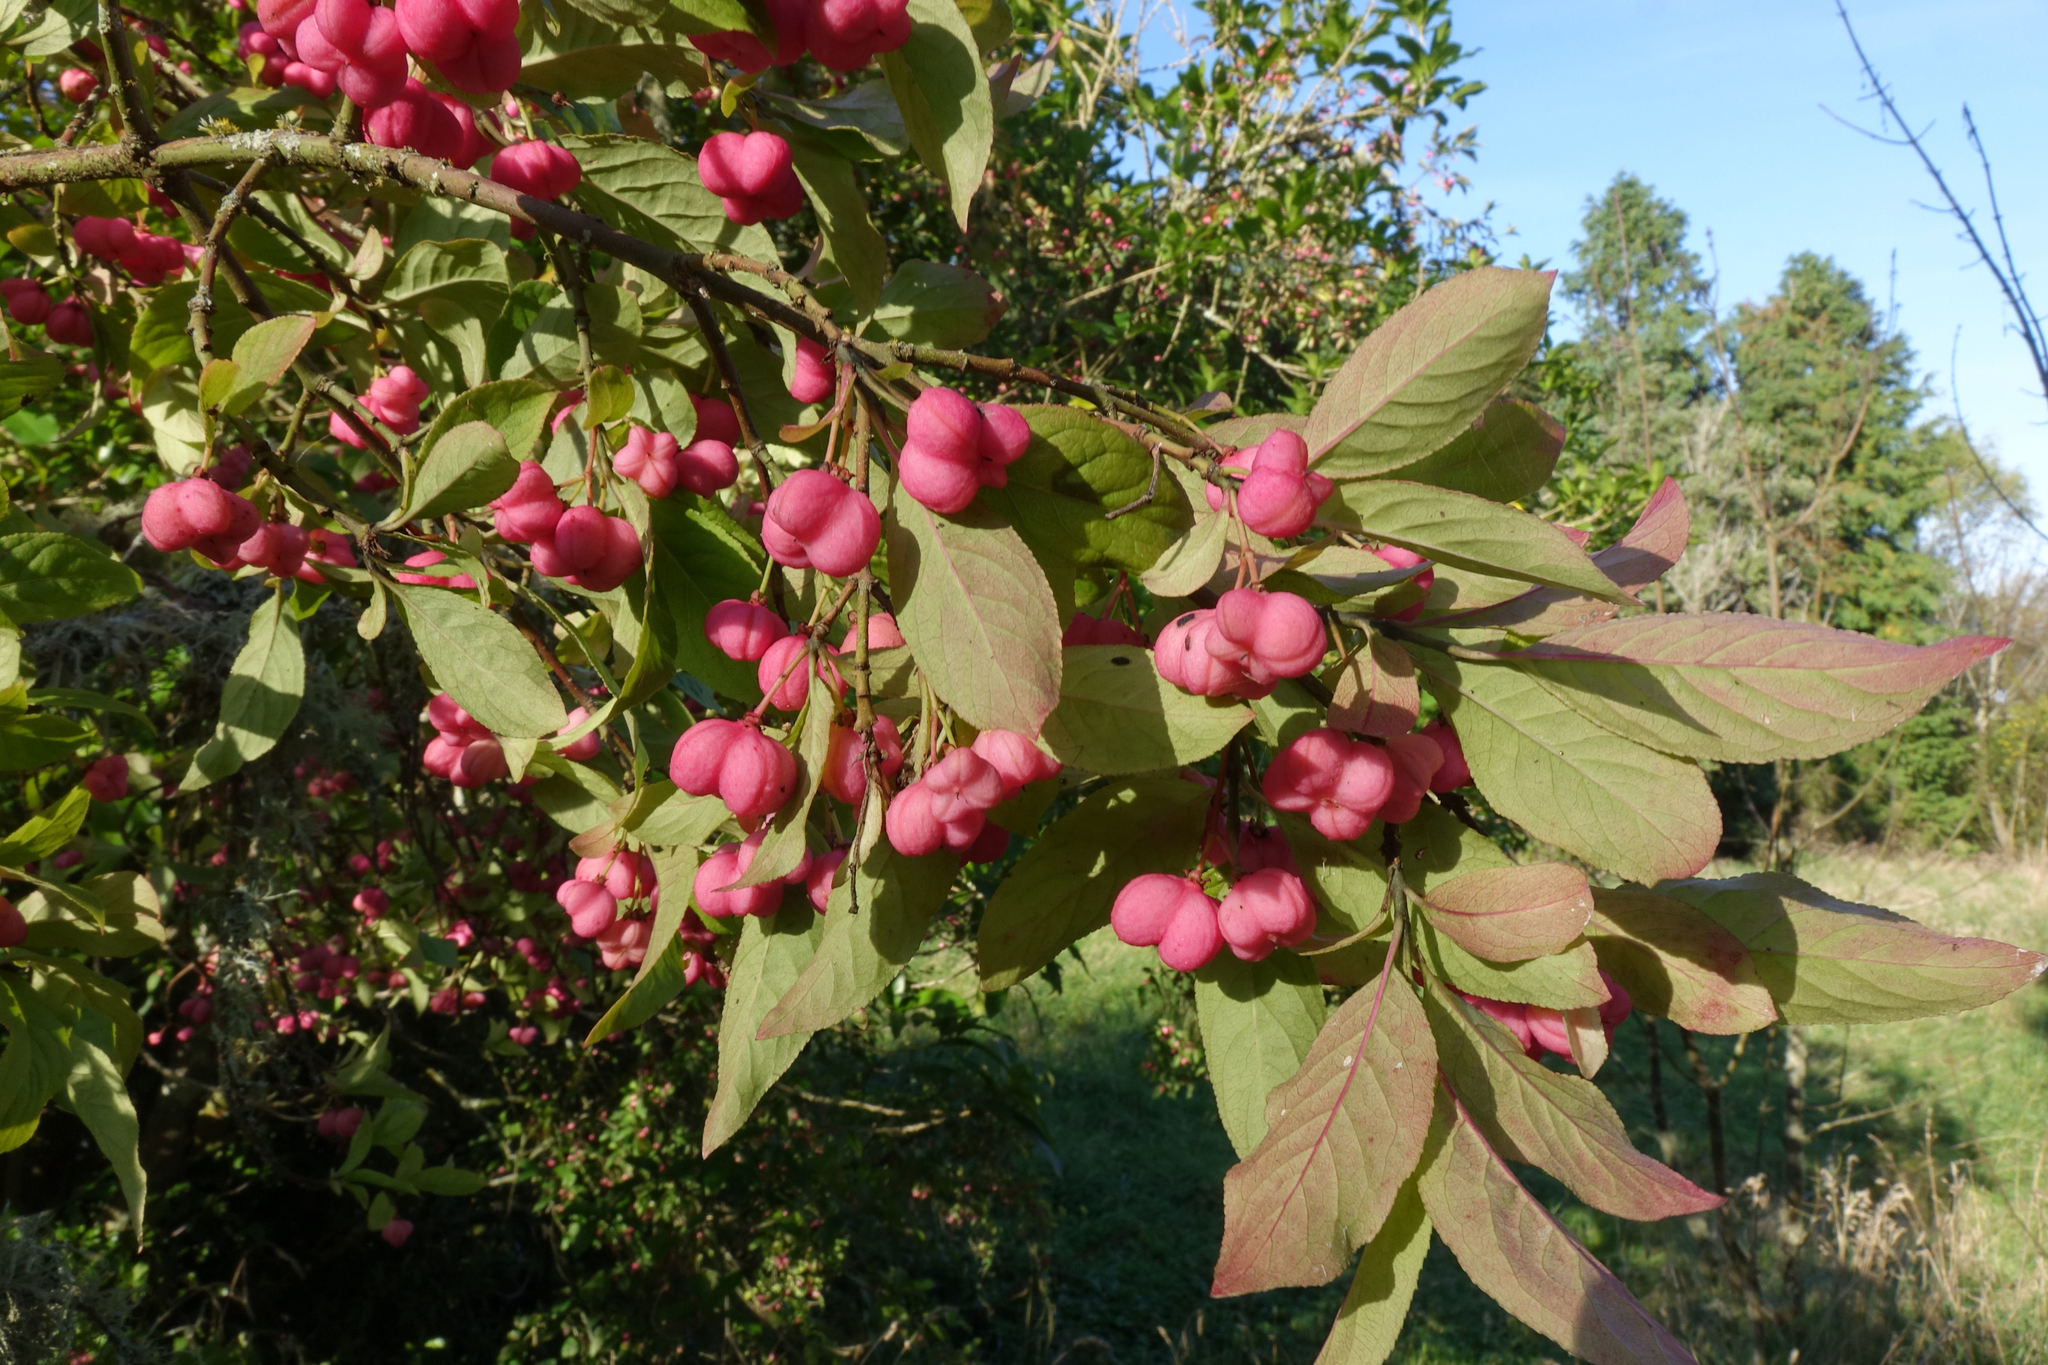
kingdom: Plantae
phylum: Tracheophyta
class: Magnoliopsida
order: Celastrales
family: Celastraceae
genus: Euonymus
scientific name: Euonymus europaeus
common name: Spindle
